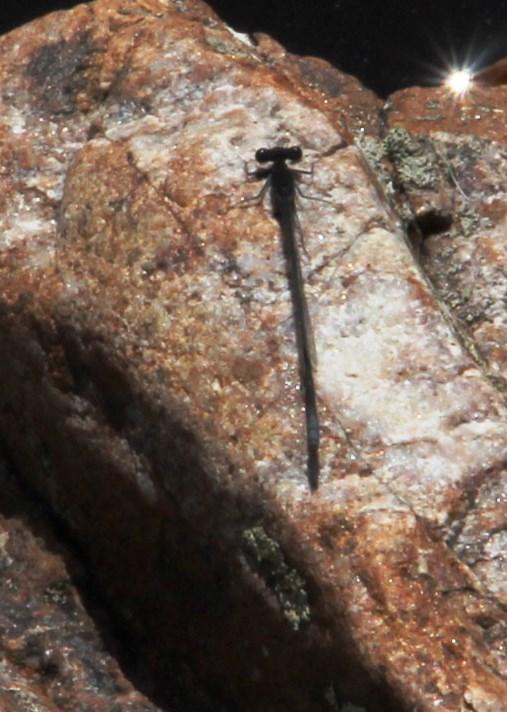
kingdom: Animalia
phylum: Arthropoda
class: Insecta
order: Odonata
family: Platycnemididae
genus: Elattoneura
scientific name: Elattoneura frenulata
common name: Sooty threadtail
